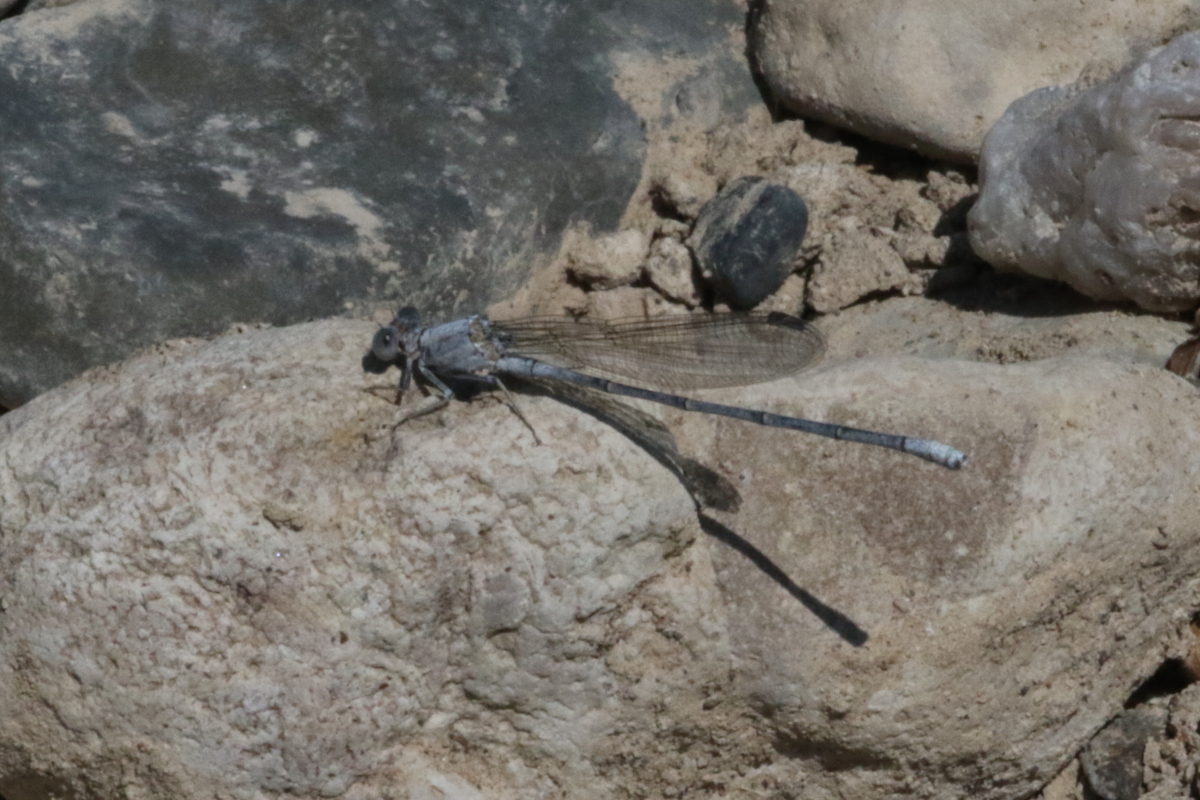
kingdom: Animalia
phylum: Arthropoda
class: Insecta
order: Odonata
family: Coenagrionidae
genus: Argia
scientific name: Argia moesta
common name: Powdered dancer
